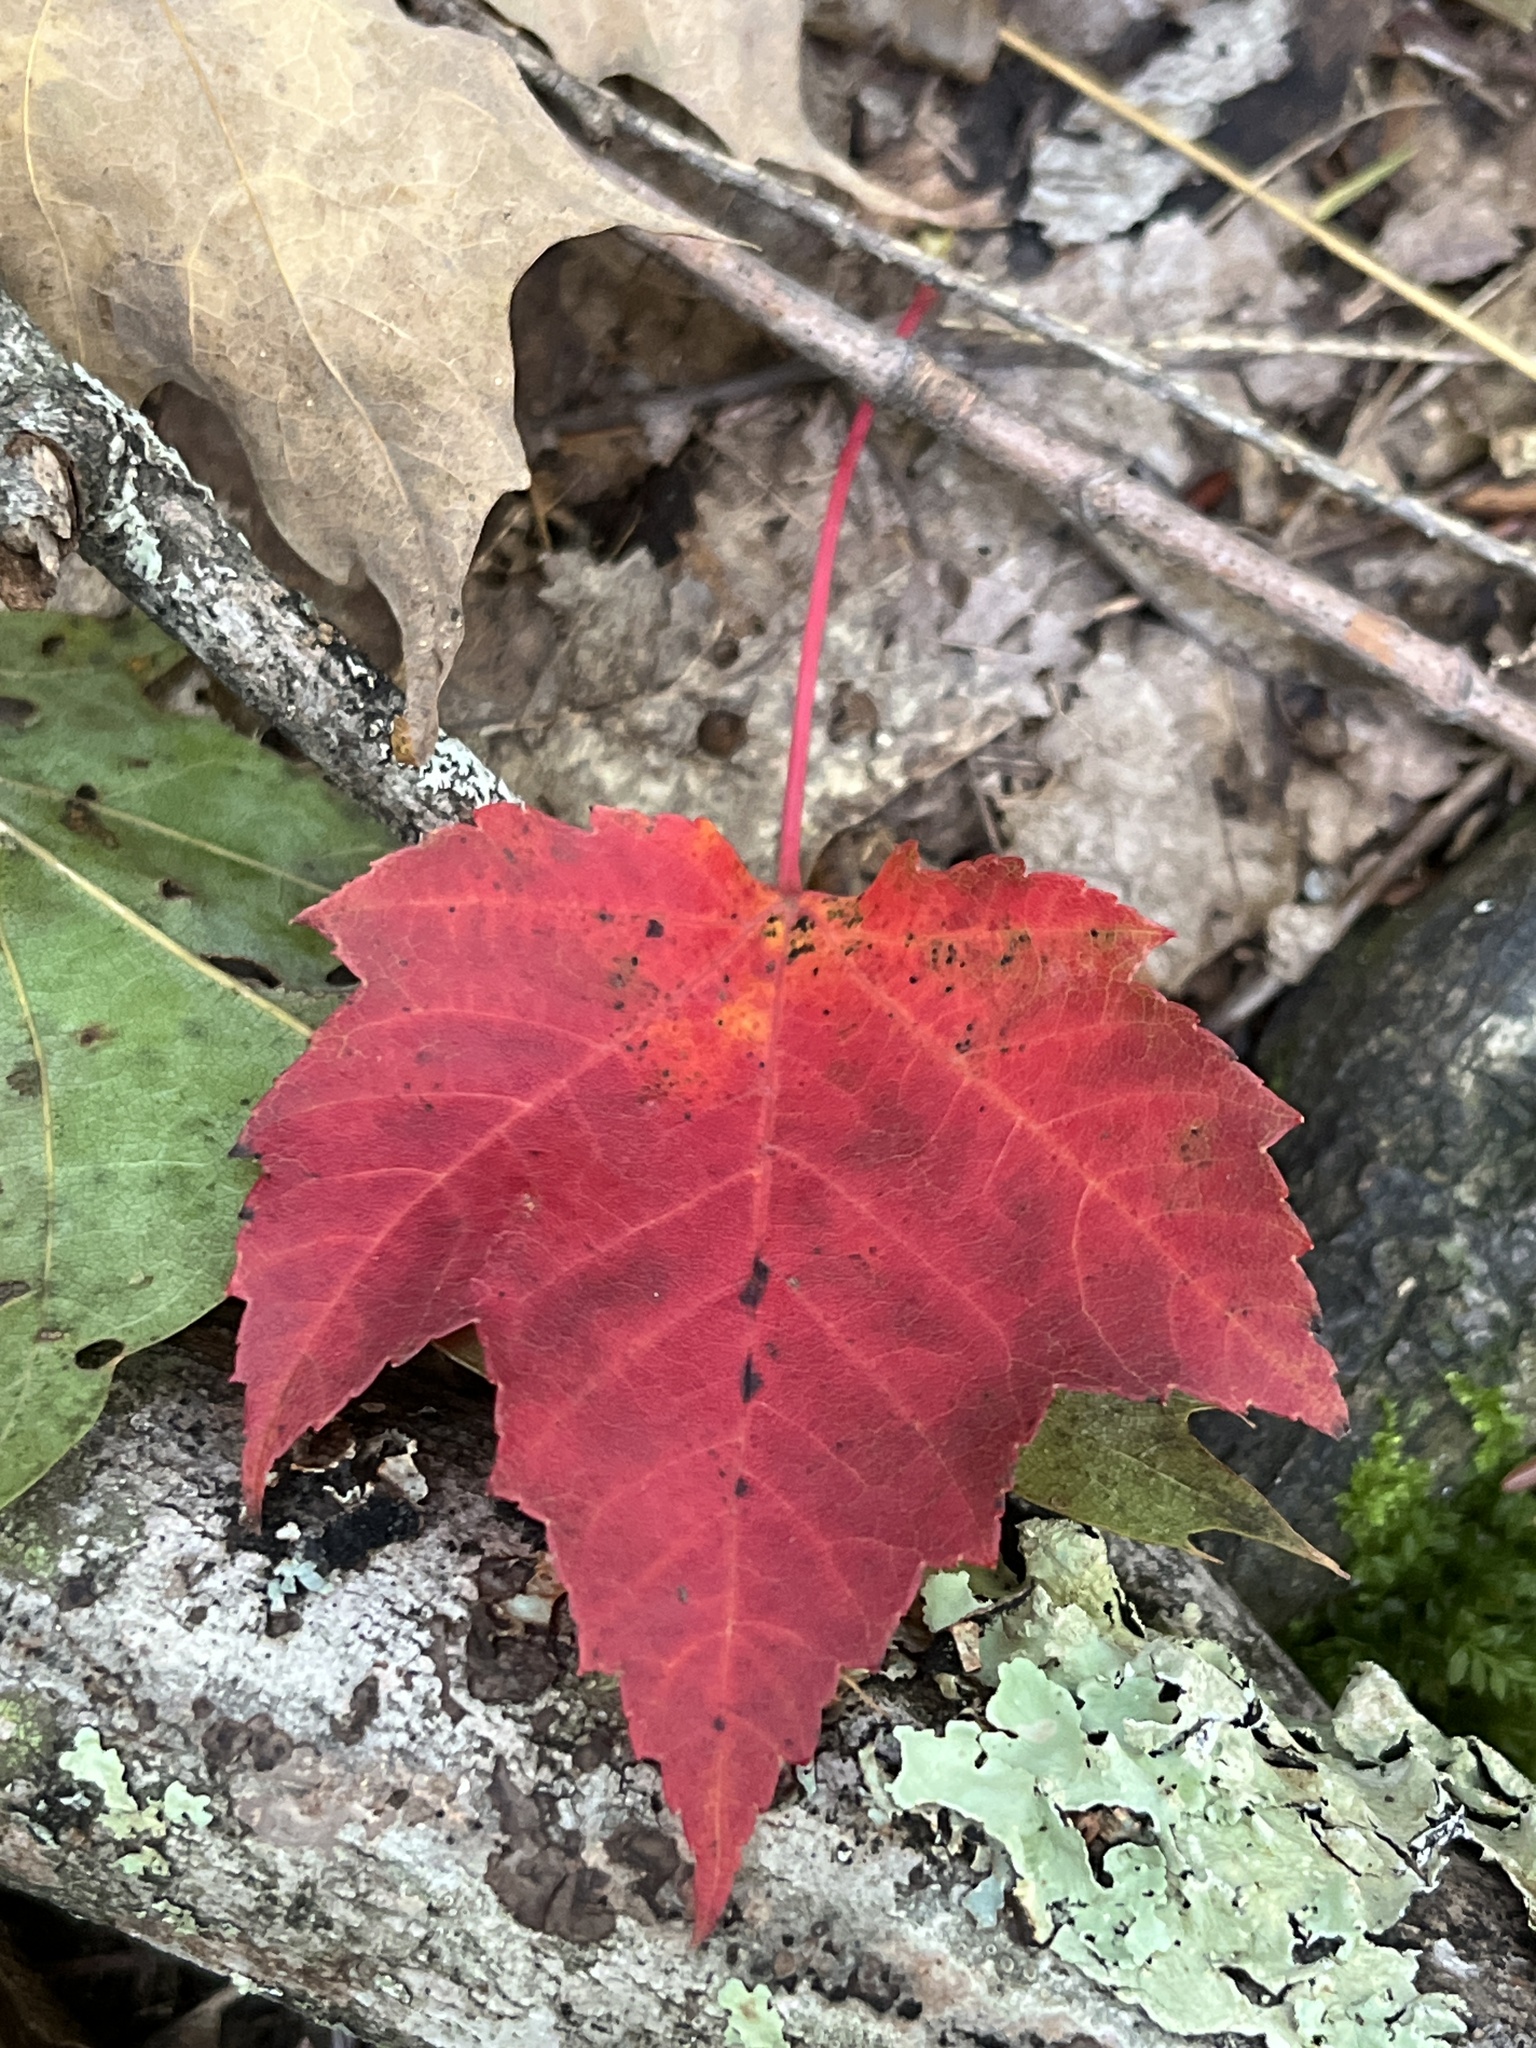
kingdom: Plantae
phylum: Tracheophyta
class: Magnoliopsida
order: Sapindales
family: Sapindaceae
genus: Acer
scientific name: Acer rubrum
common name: Red maple
